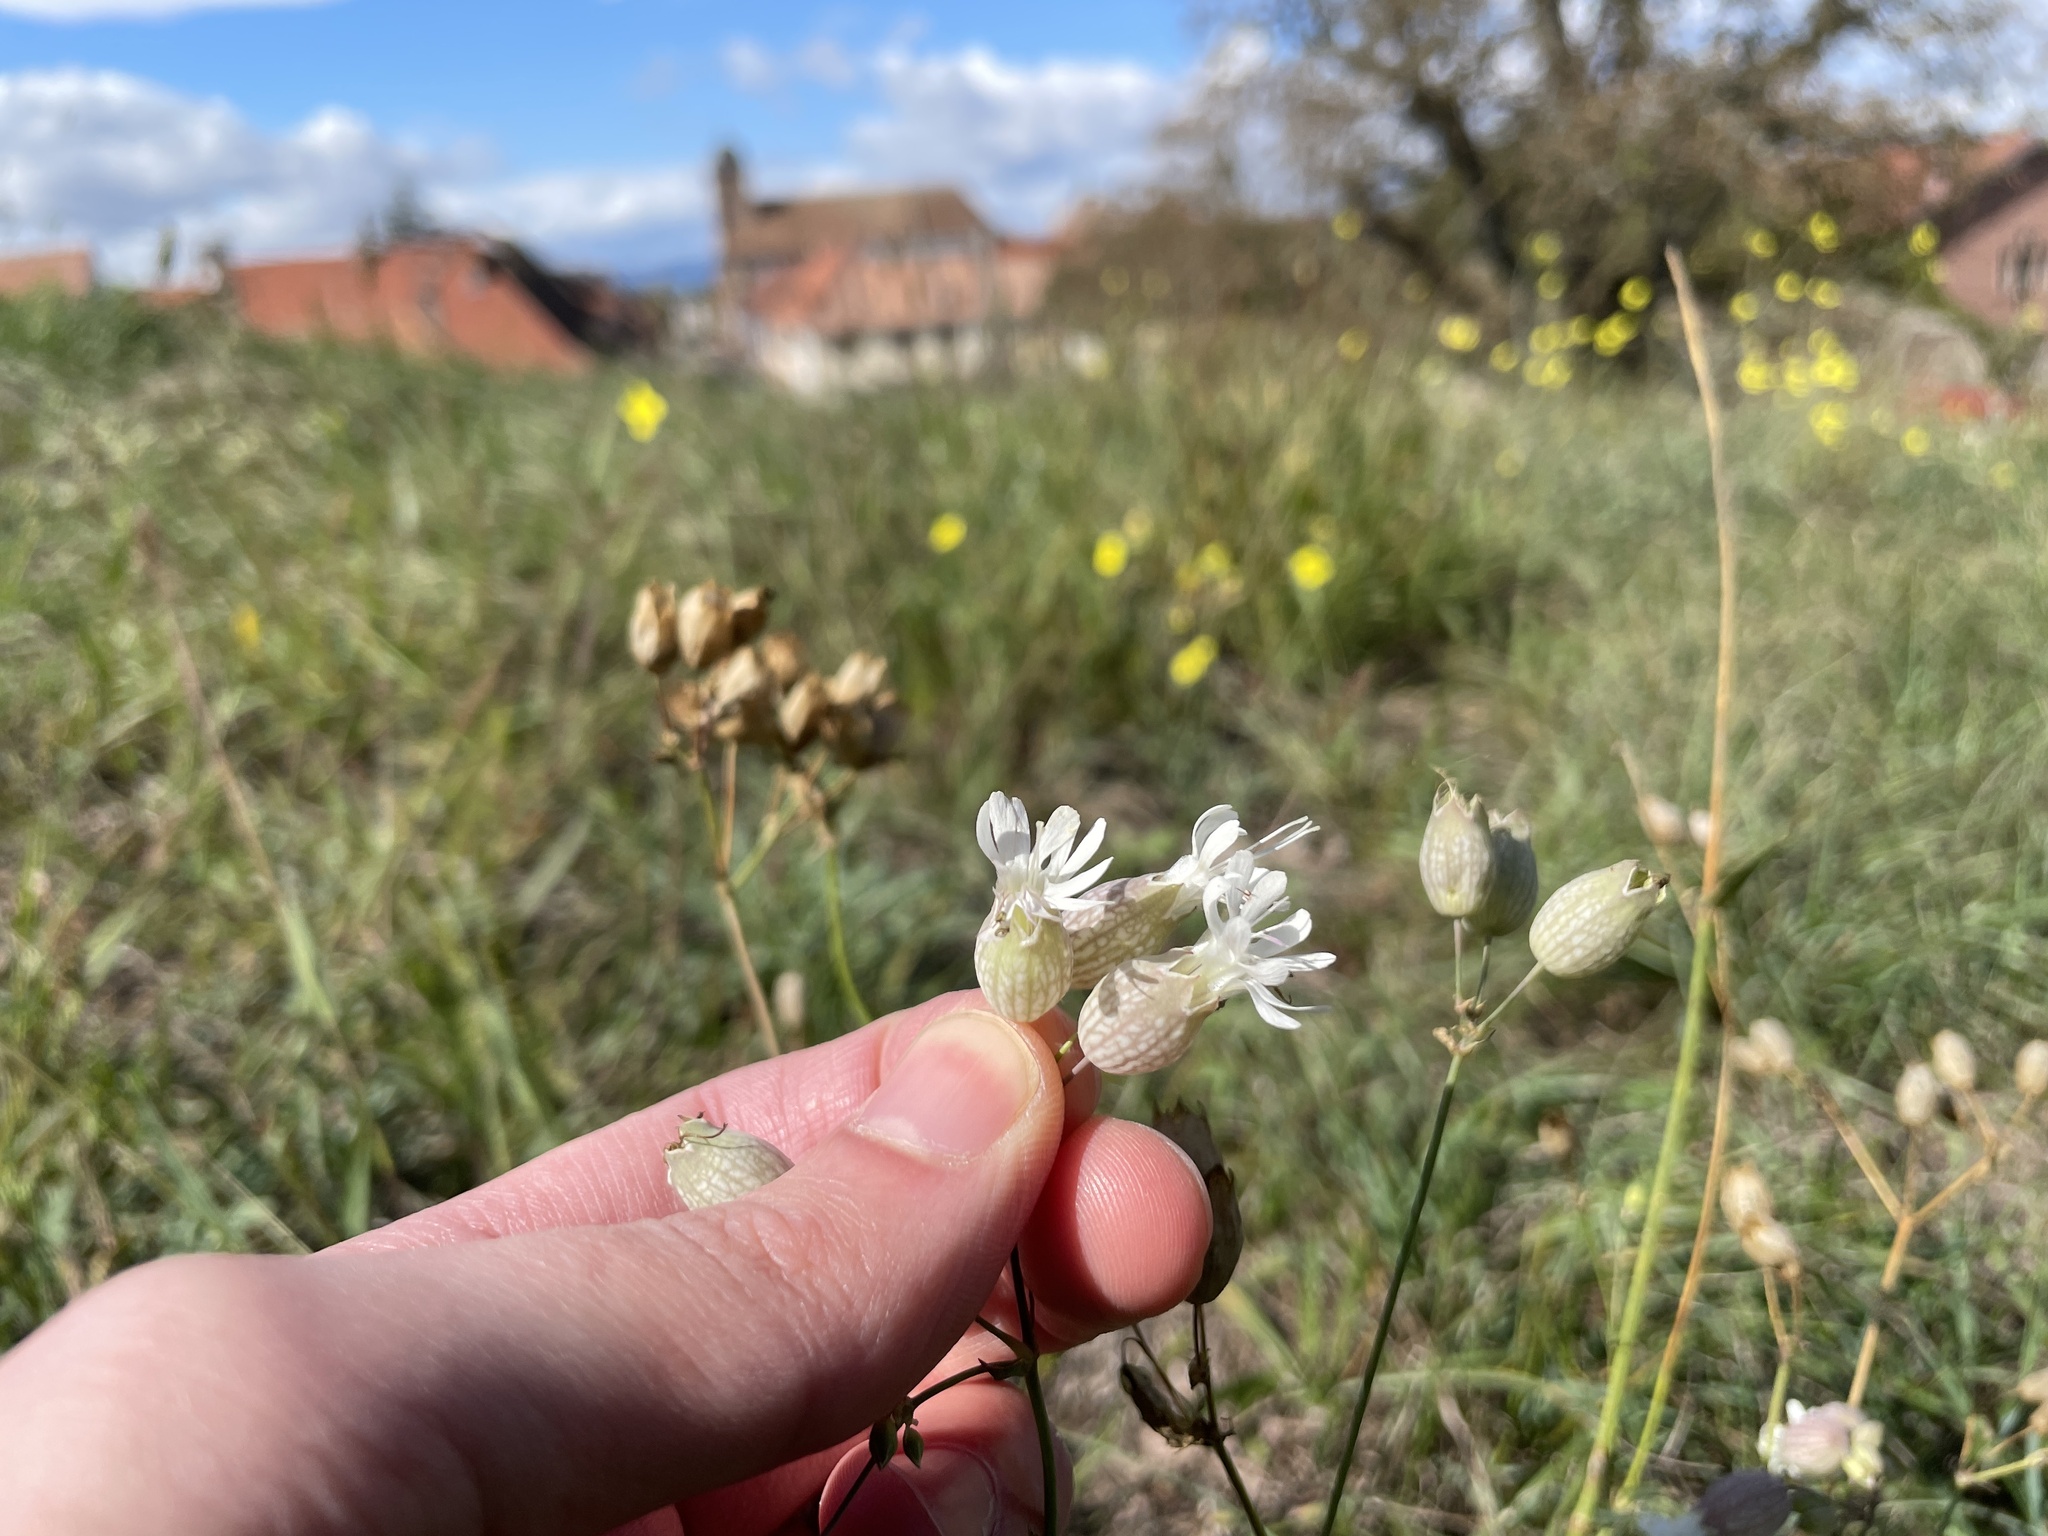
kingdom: Plantae
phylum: Tracheophyta
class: Magnoliopsida
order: Caryophyllales
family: Caryophyllaceae
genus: Silene
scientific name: Silene vulgaris
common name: Bladder campion
